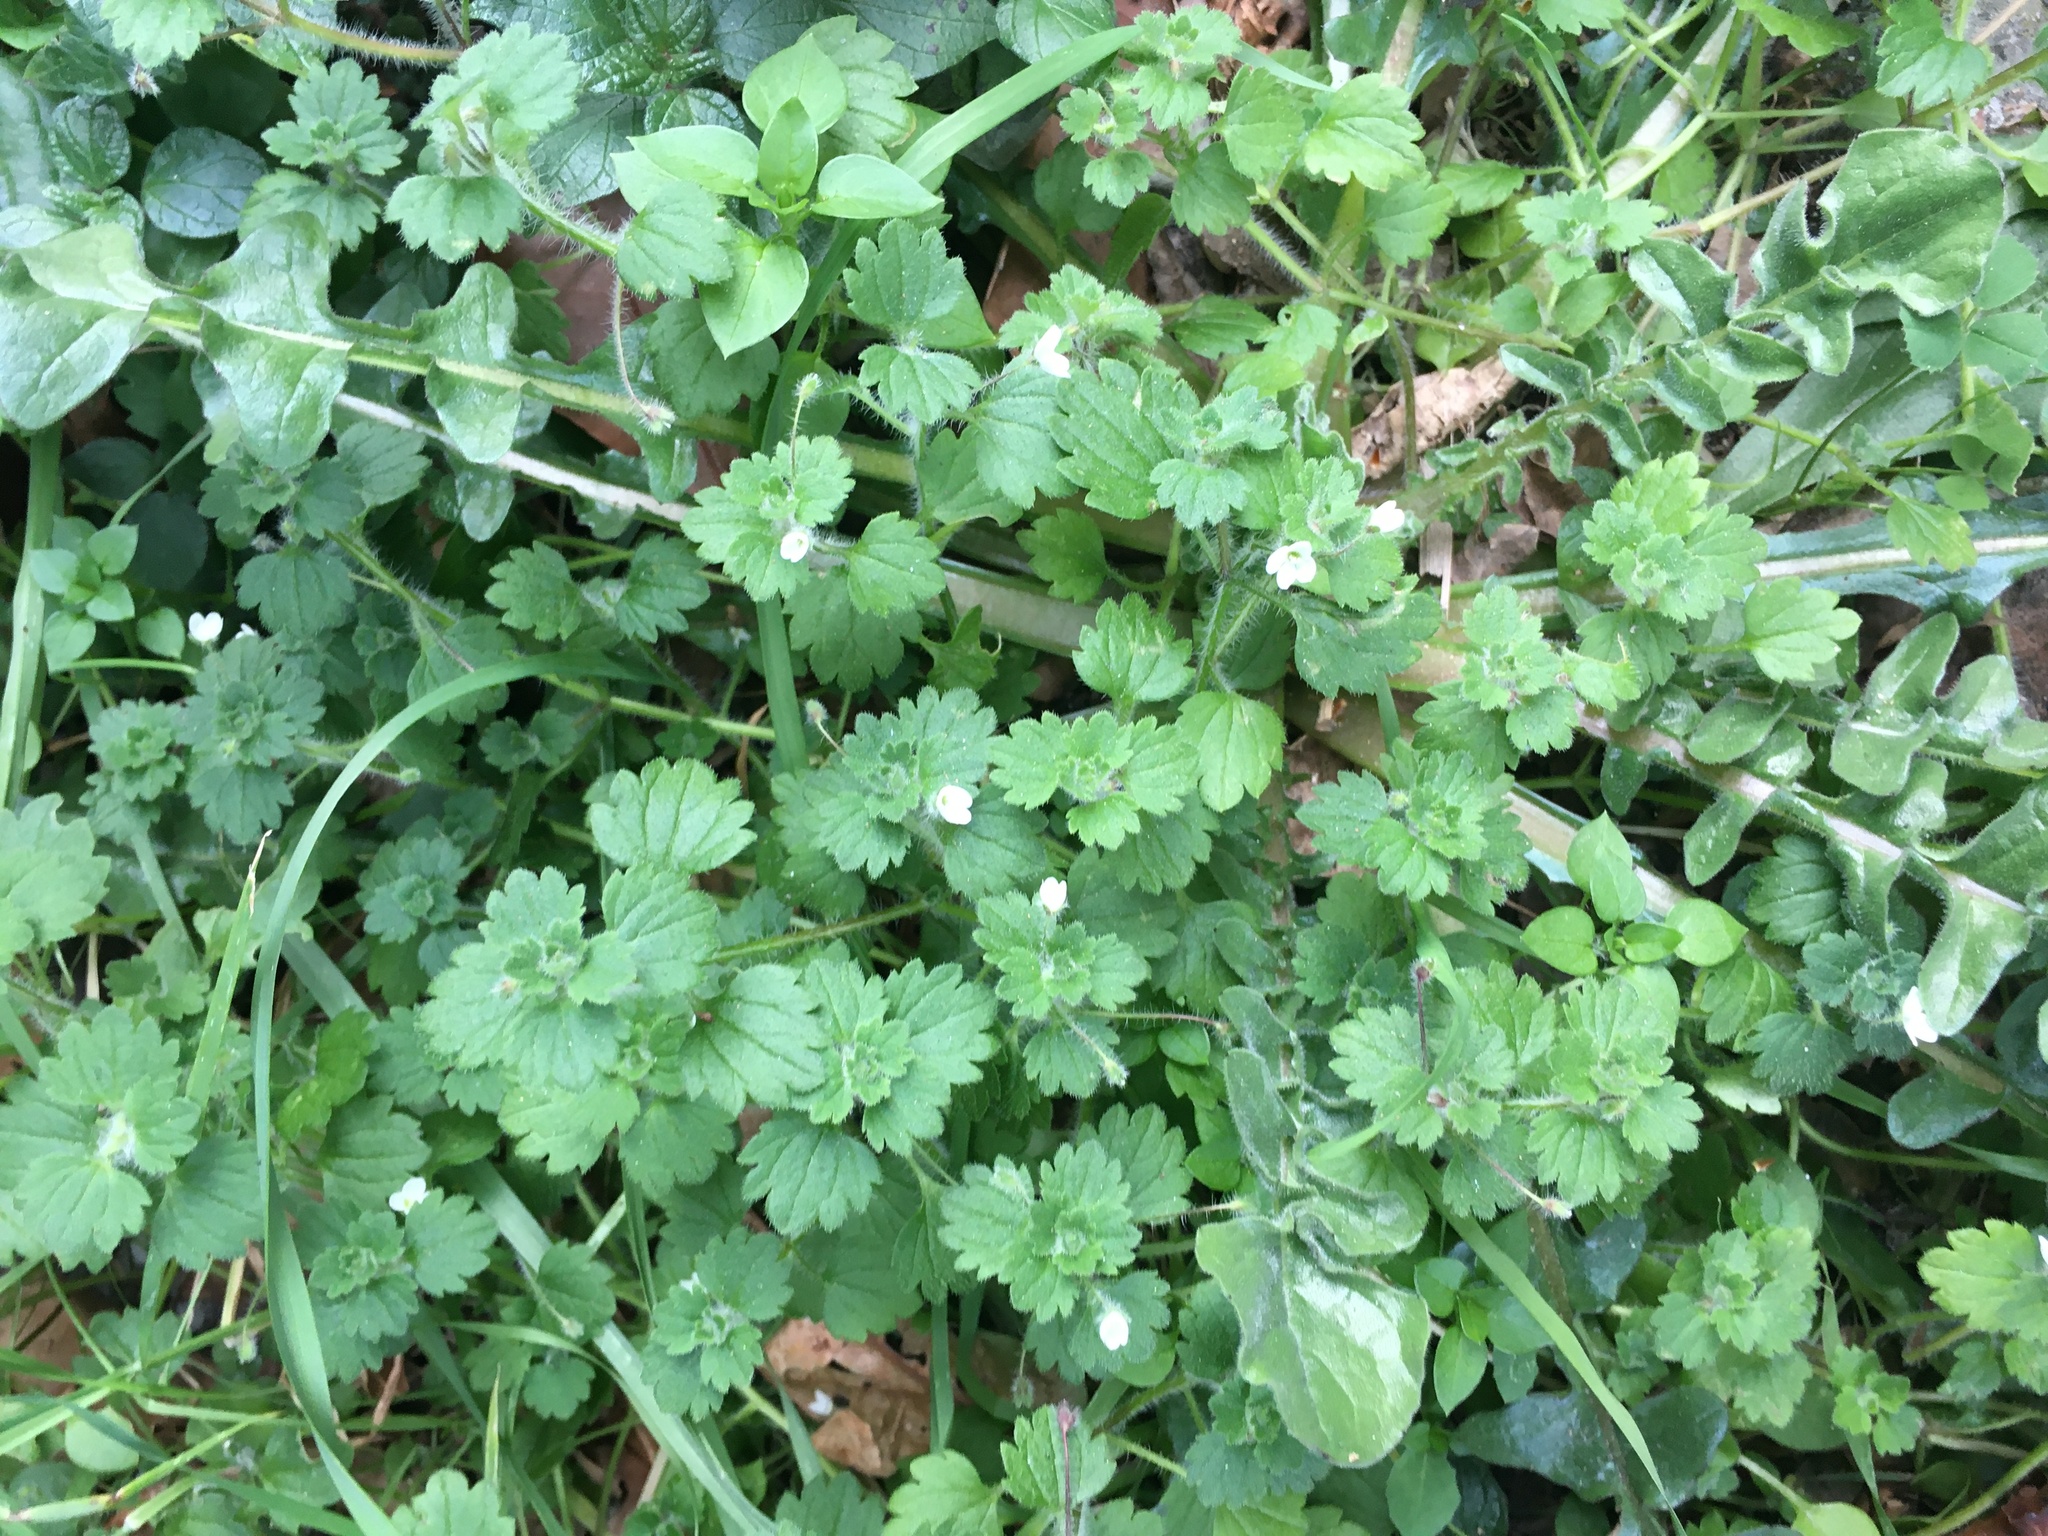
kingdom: Plantae
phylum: Tracheophyta
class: Magnoliopsida
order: Lamiales
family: Plantaginaceae
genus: Veronica
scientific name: Veronica cymbalaria
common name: Pale speedwell
